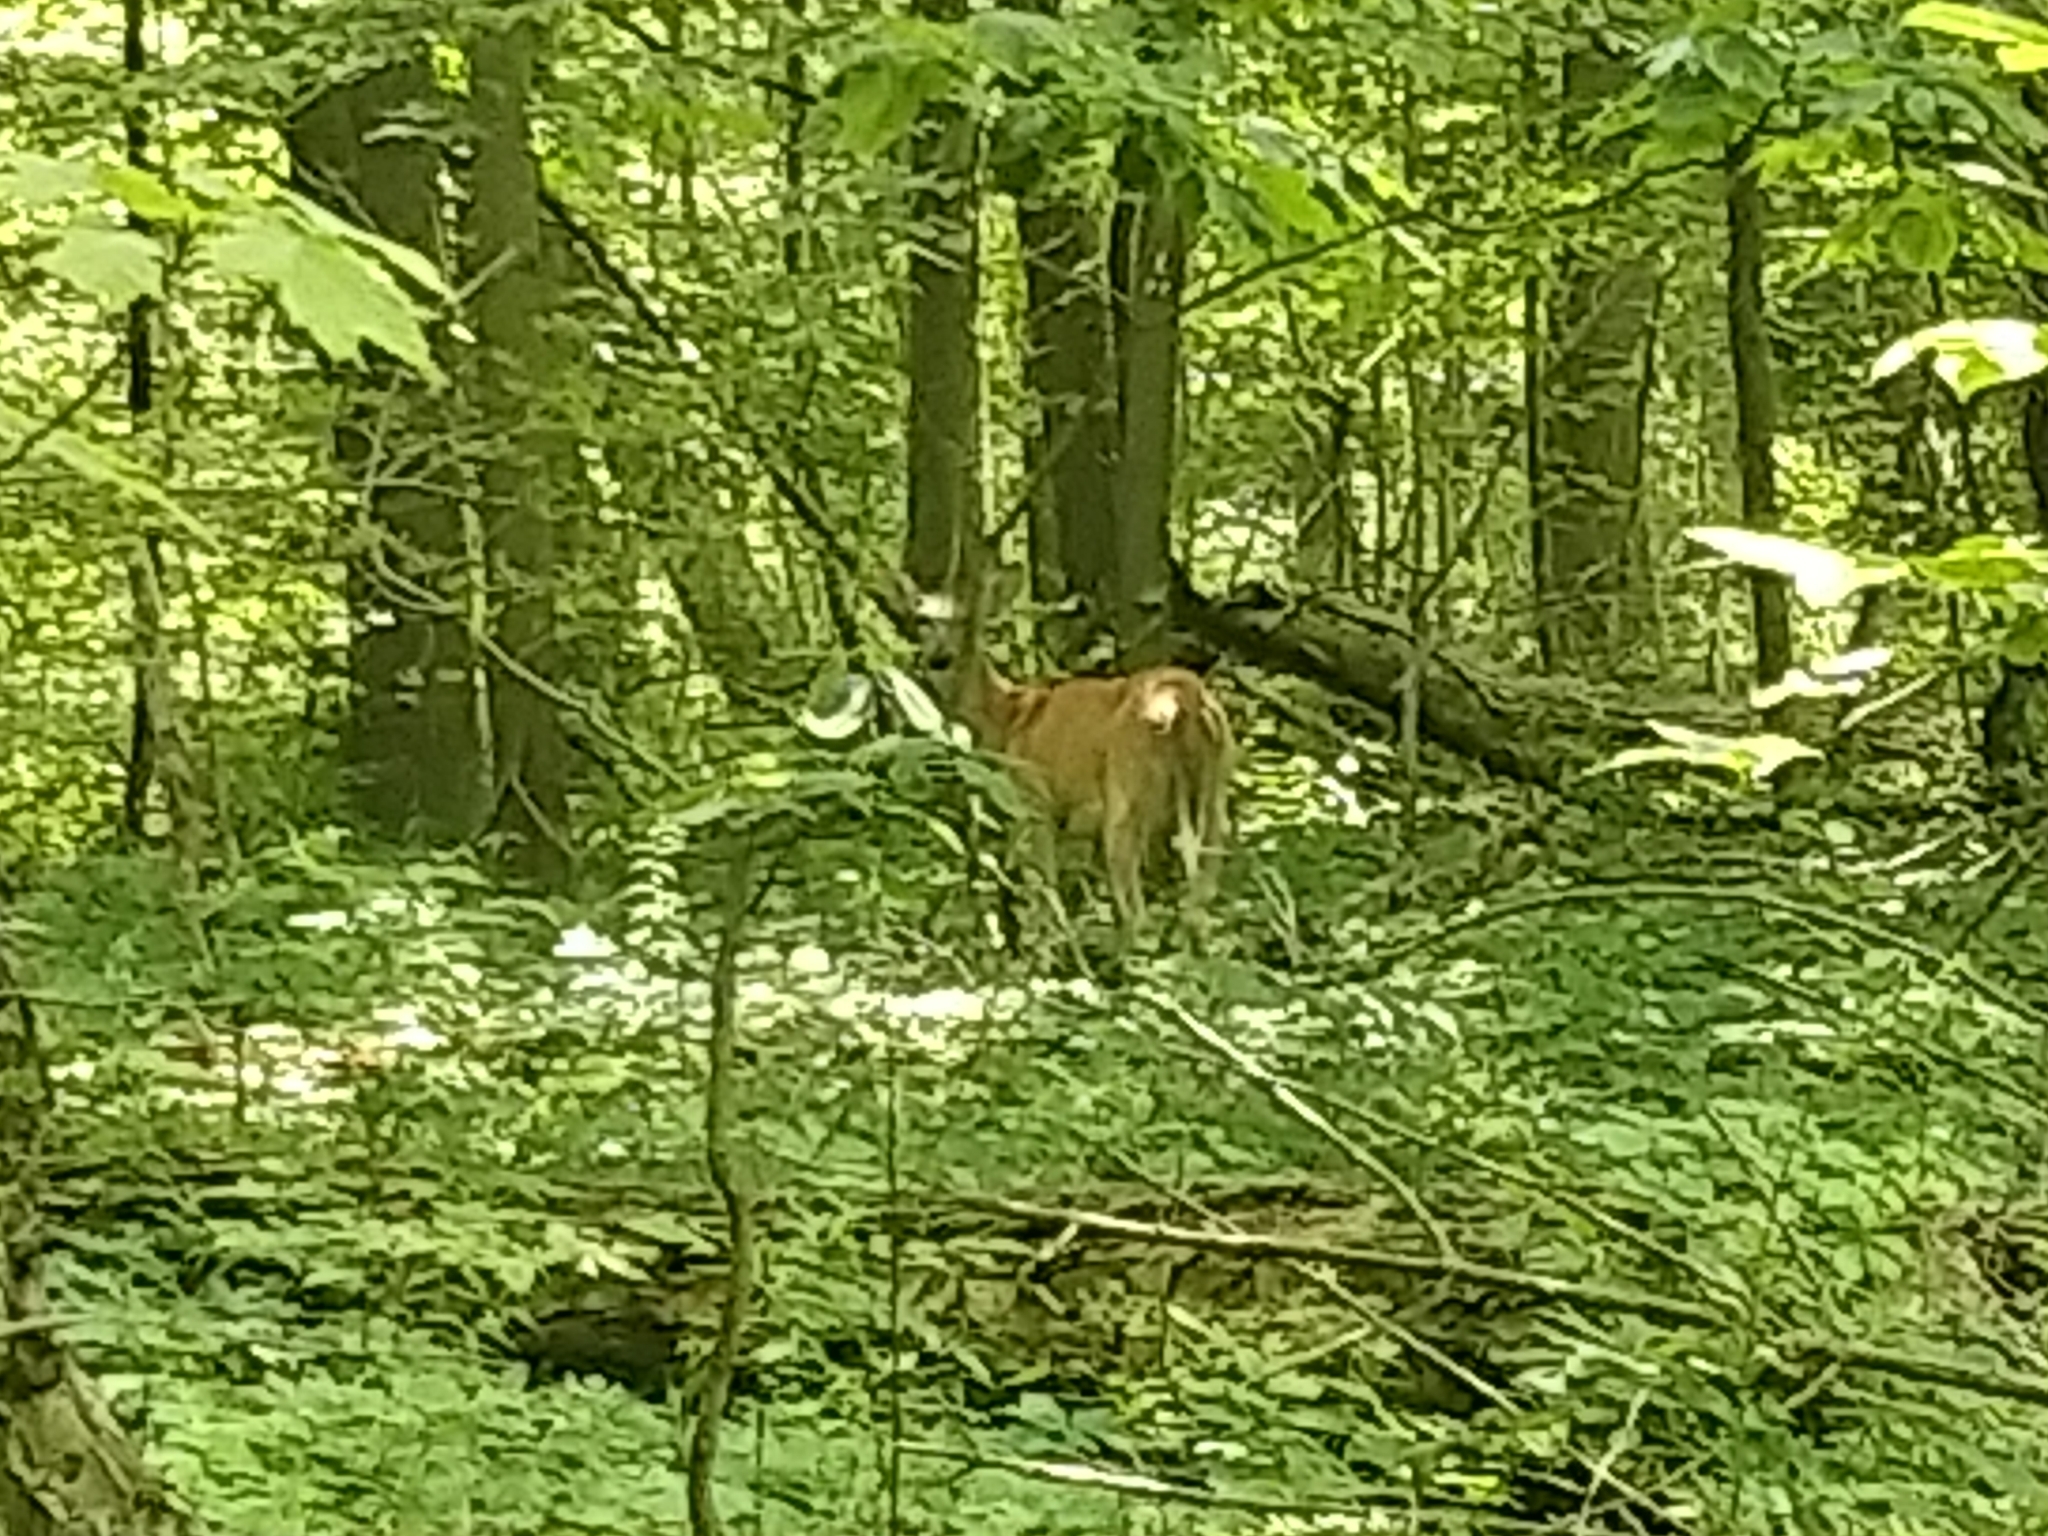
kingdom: Animalia
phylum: Chordata
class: Mammalia
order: Artiodactyla
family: Cervidae
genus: Odocoileus
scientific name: Odocoileus virginianus
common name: White-tailed deer
